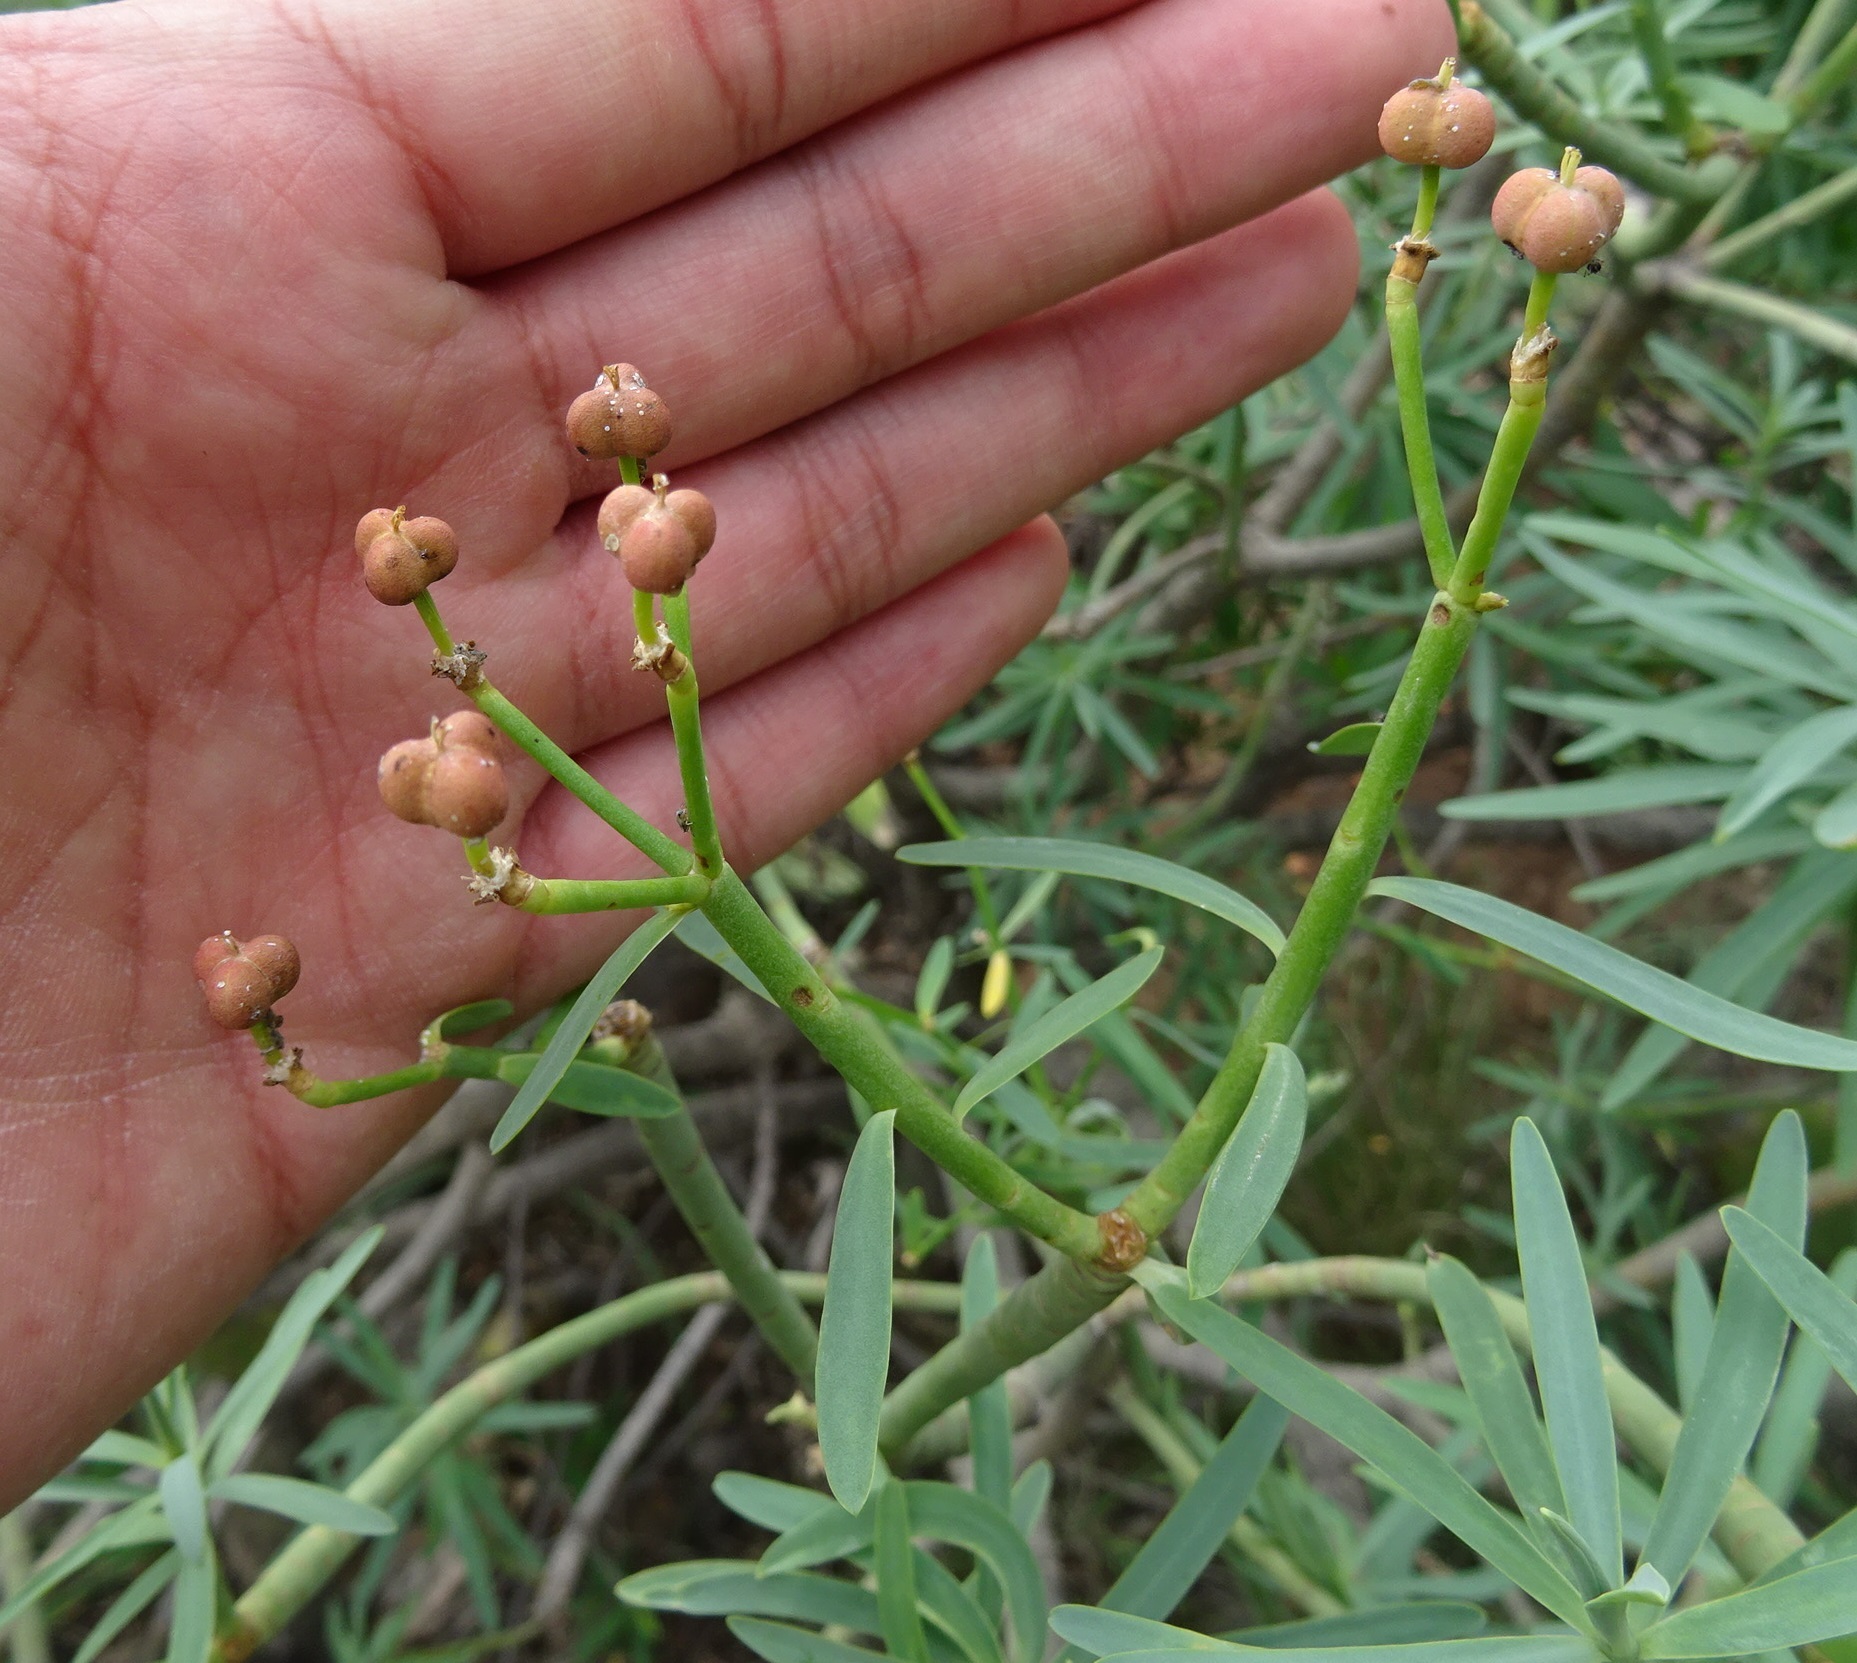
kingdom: Plantae
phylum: Tracheophyta
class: Magnoliopsida
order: Malpighiales
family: Euphorbiaceae
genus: Euphorbia
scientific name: Euphorbia lamarckii
